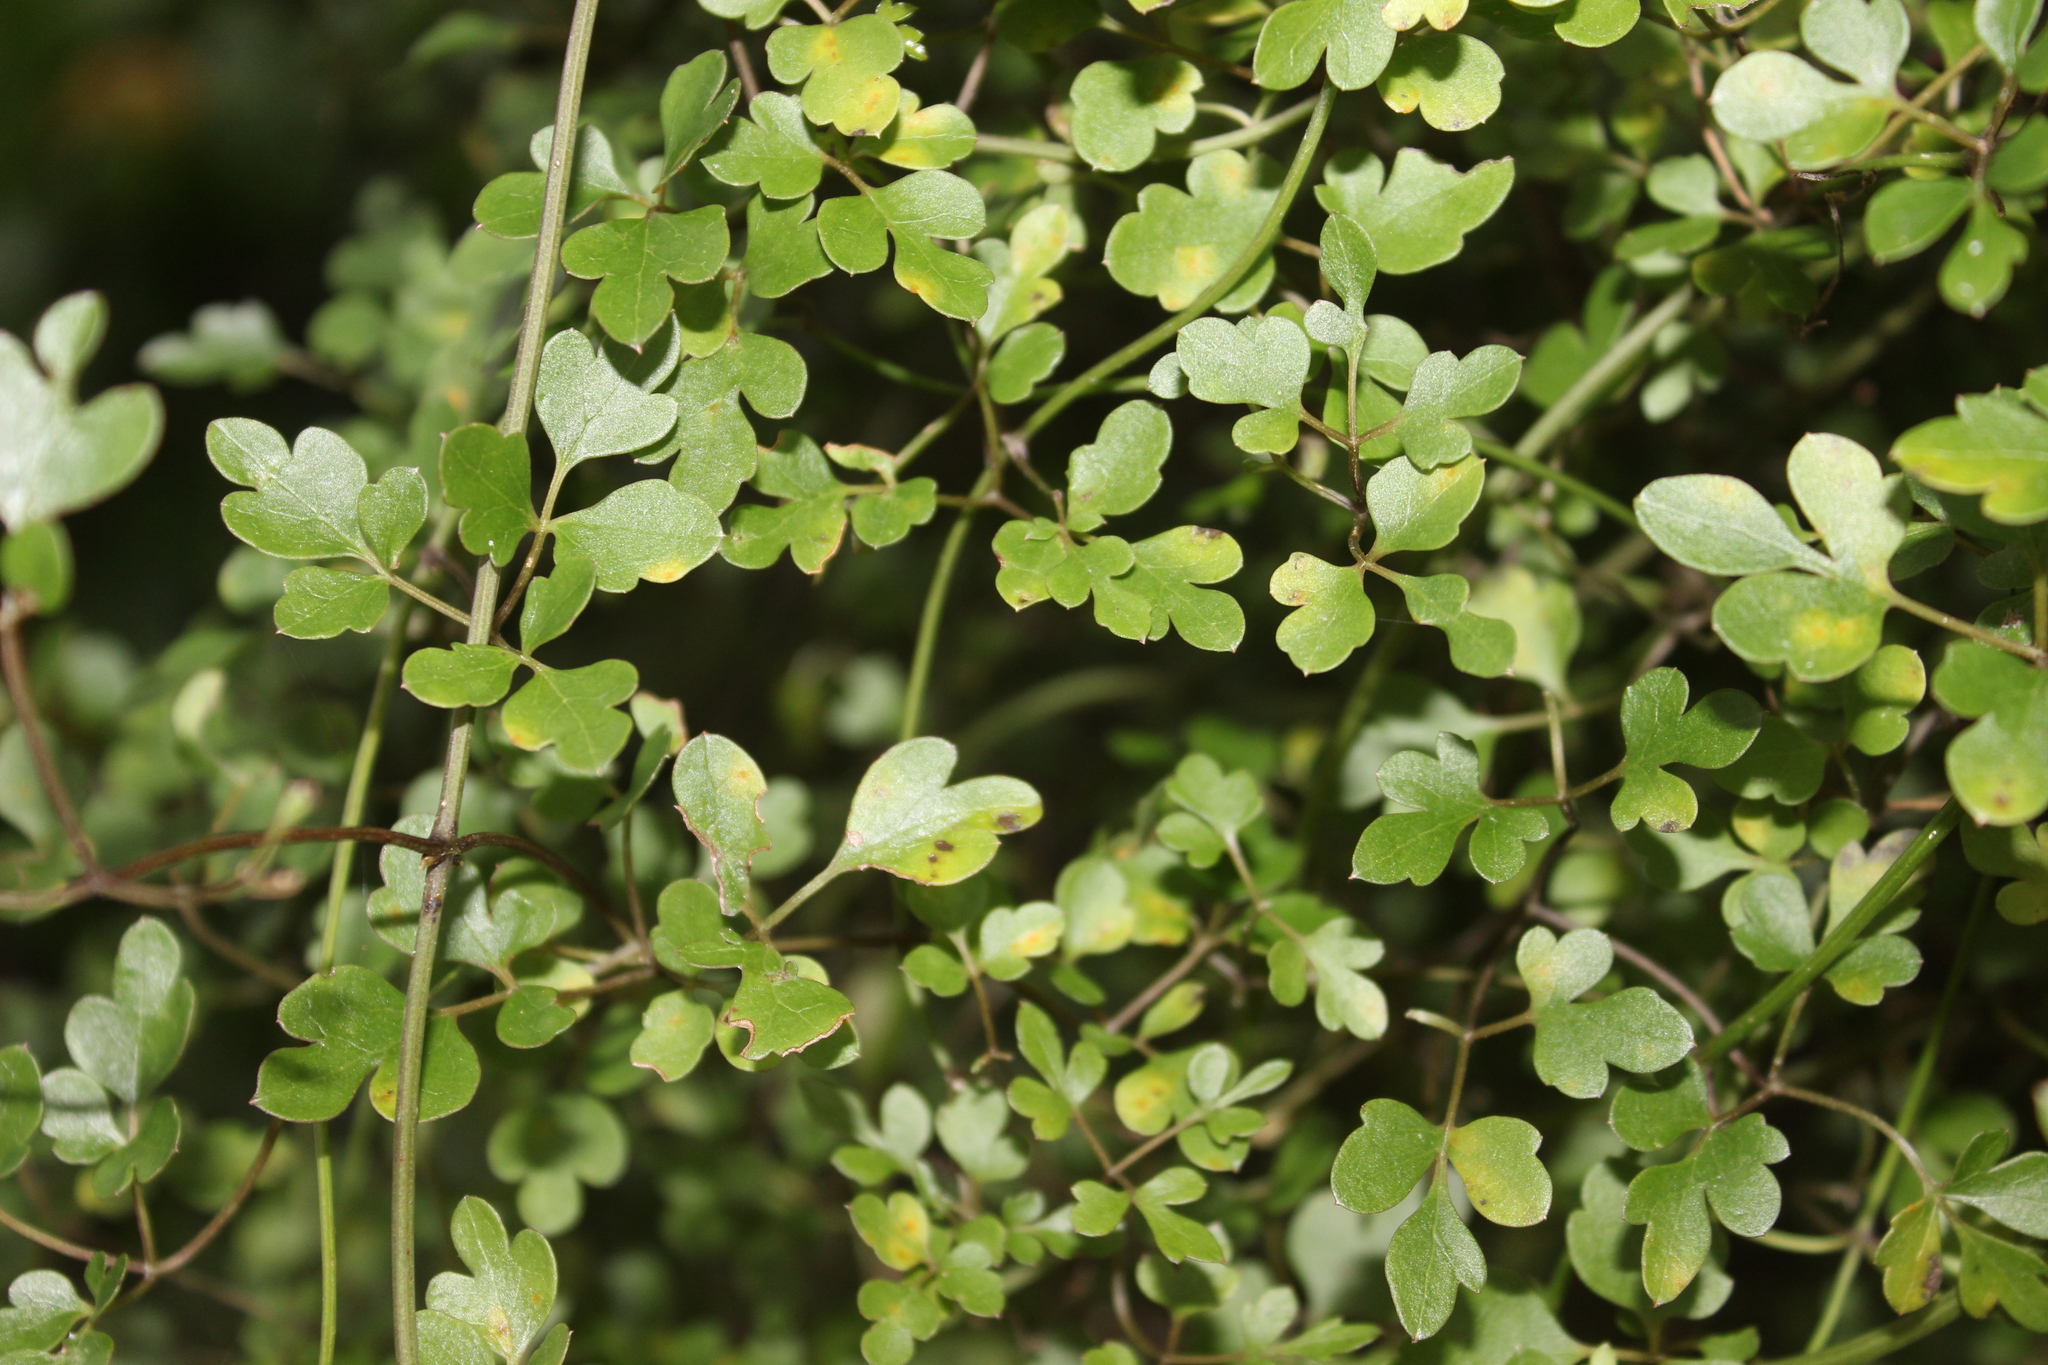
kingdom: Plantae
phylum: Tracheophyta
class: Magnoliopsida
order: Ranunculales
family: Ranunculaceae
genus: Clematis
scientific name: Clematis forsteri
